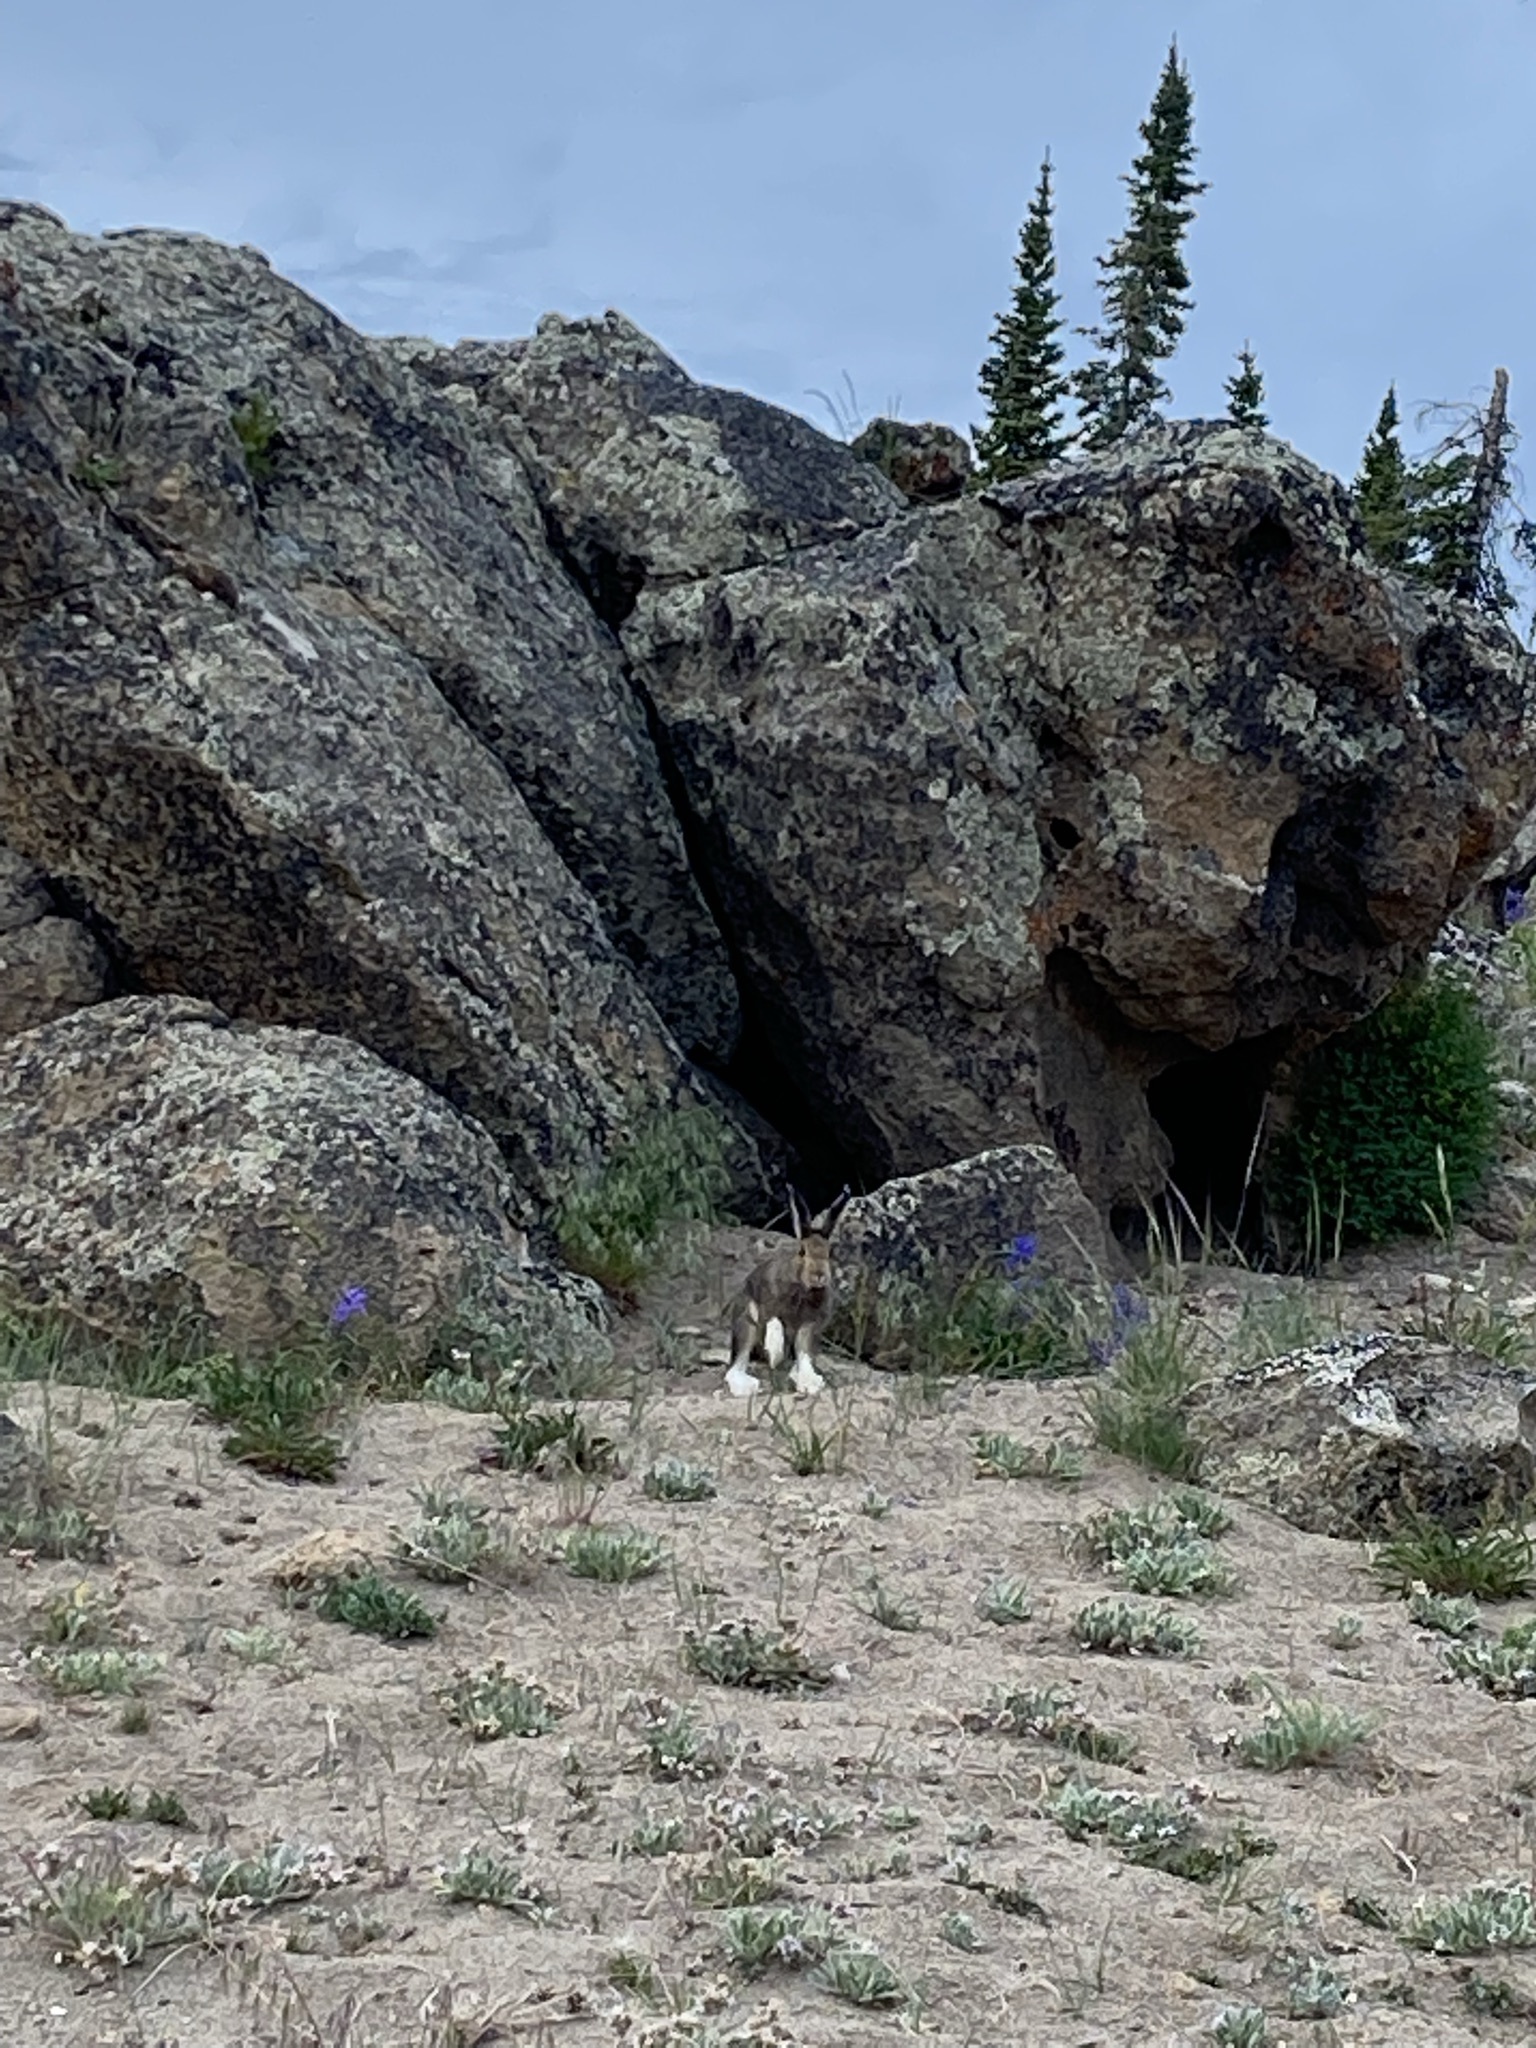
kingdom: Animalia
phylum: Chordata
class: Mammalia
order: Lagomorpha
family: Leporidae
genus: Lepus
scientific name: Lepus americanus
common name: Snowshoe hare
